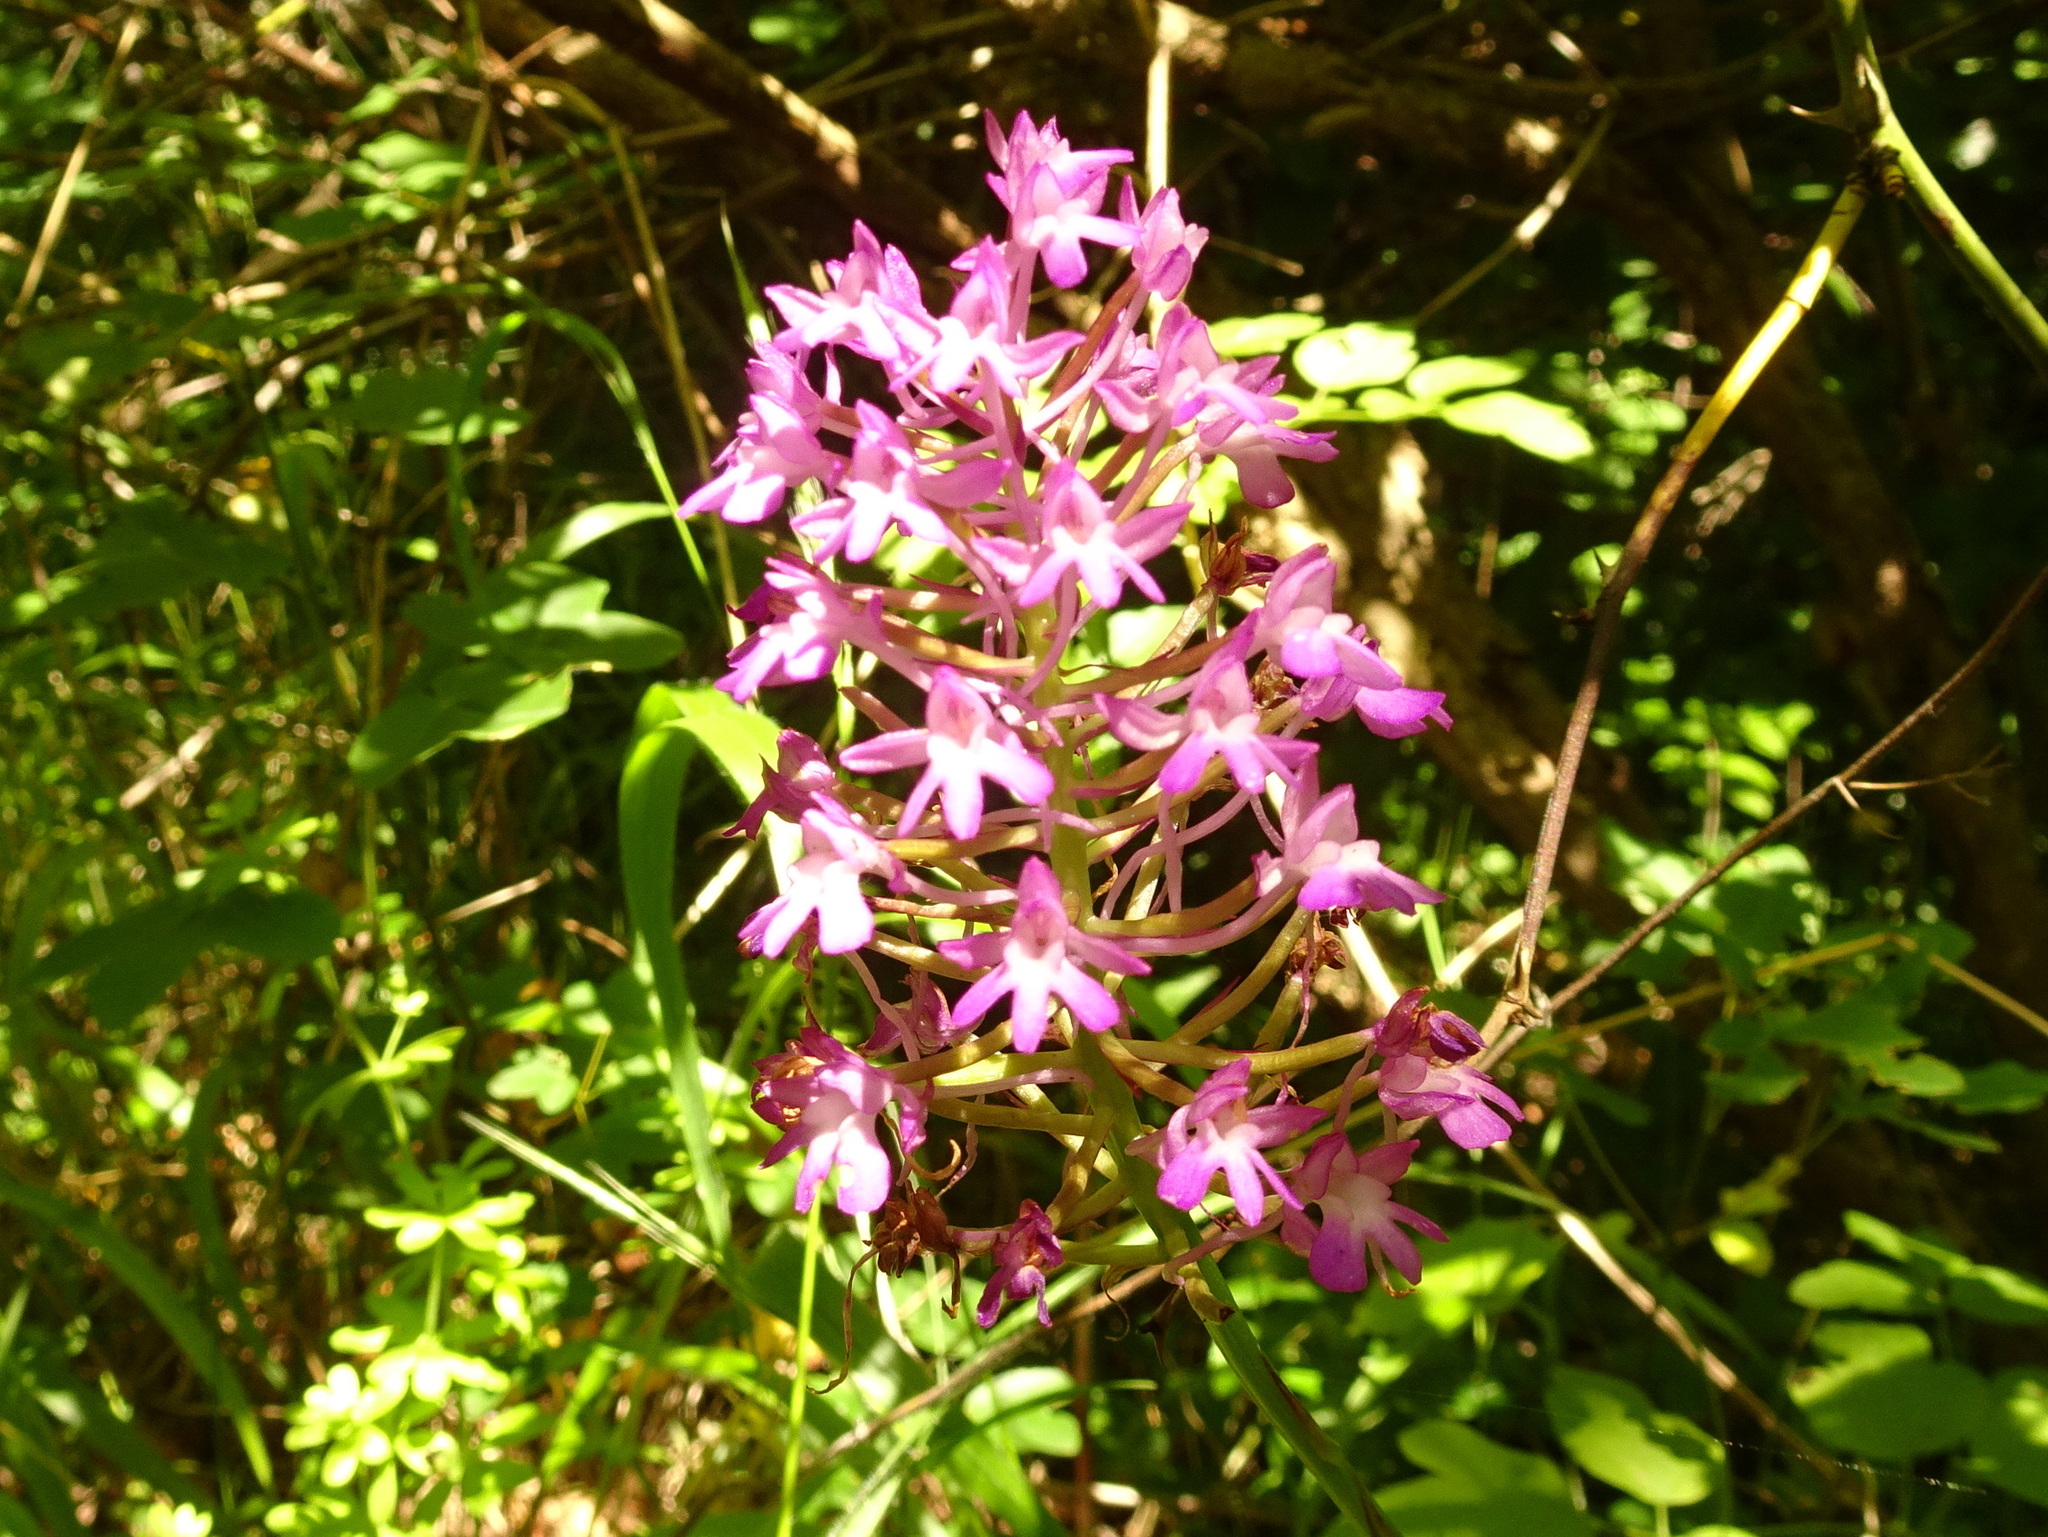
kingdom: Plantae
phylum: Tracheophyta
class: Liliopsida
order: Asparagales
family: Orchidaceae
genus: Anacamptis
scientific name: Anacamptis pyramidalis
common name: Pyramidal orchid
